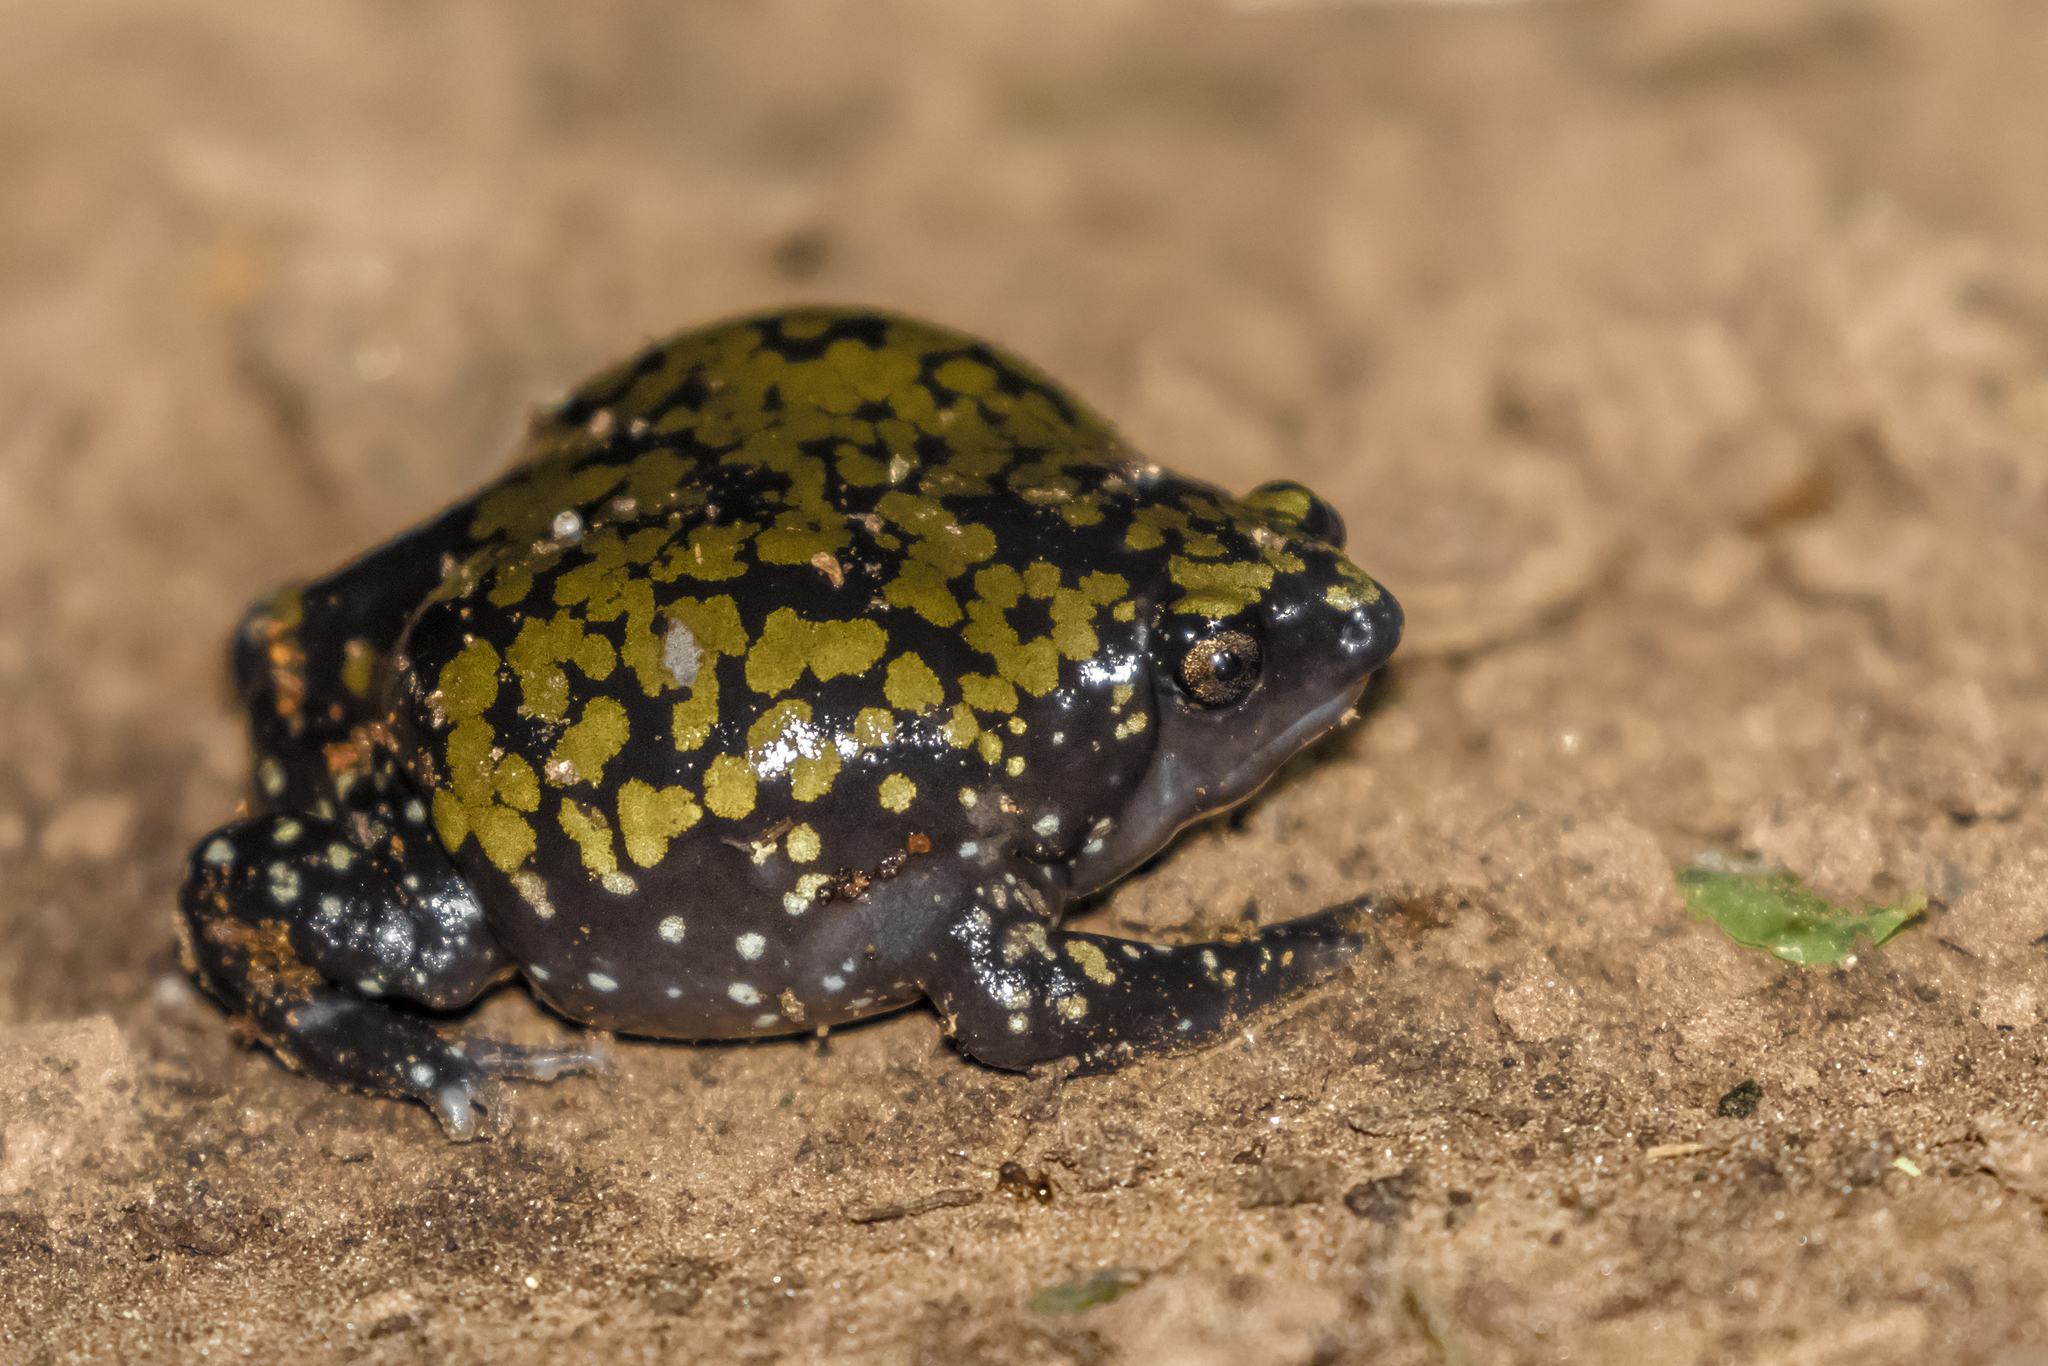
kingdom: Animalia
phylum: Chordata
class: Amphibia
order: Anura
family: Microhylidae
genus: Dermatonotus
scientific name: Dermatonotus muelleri
